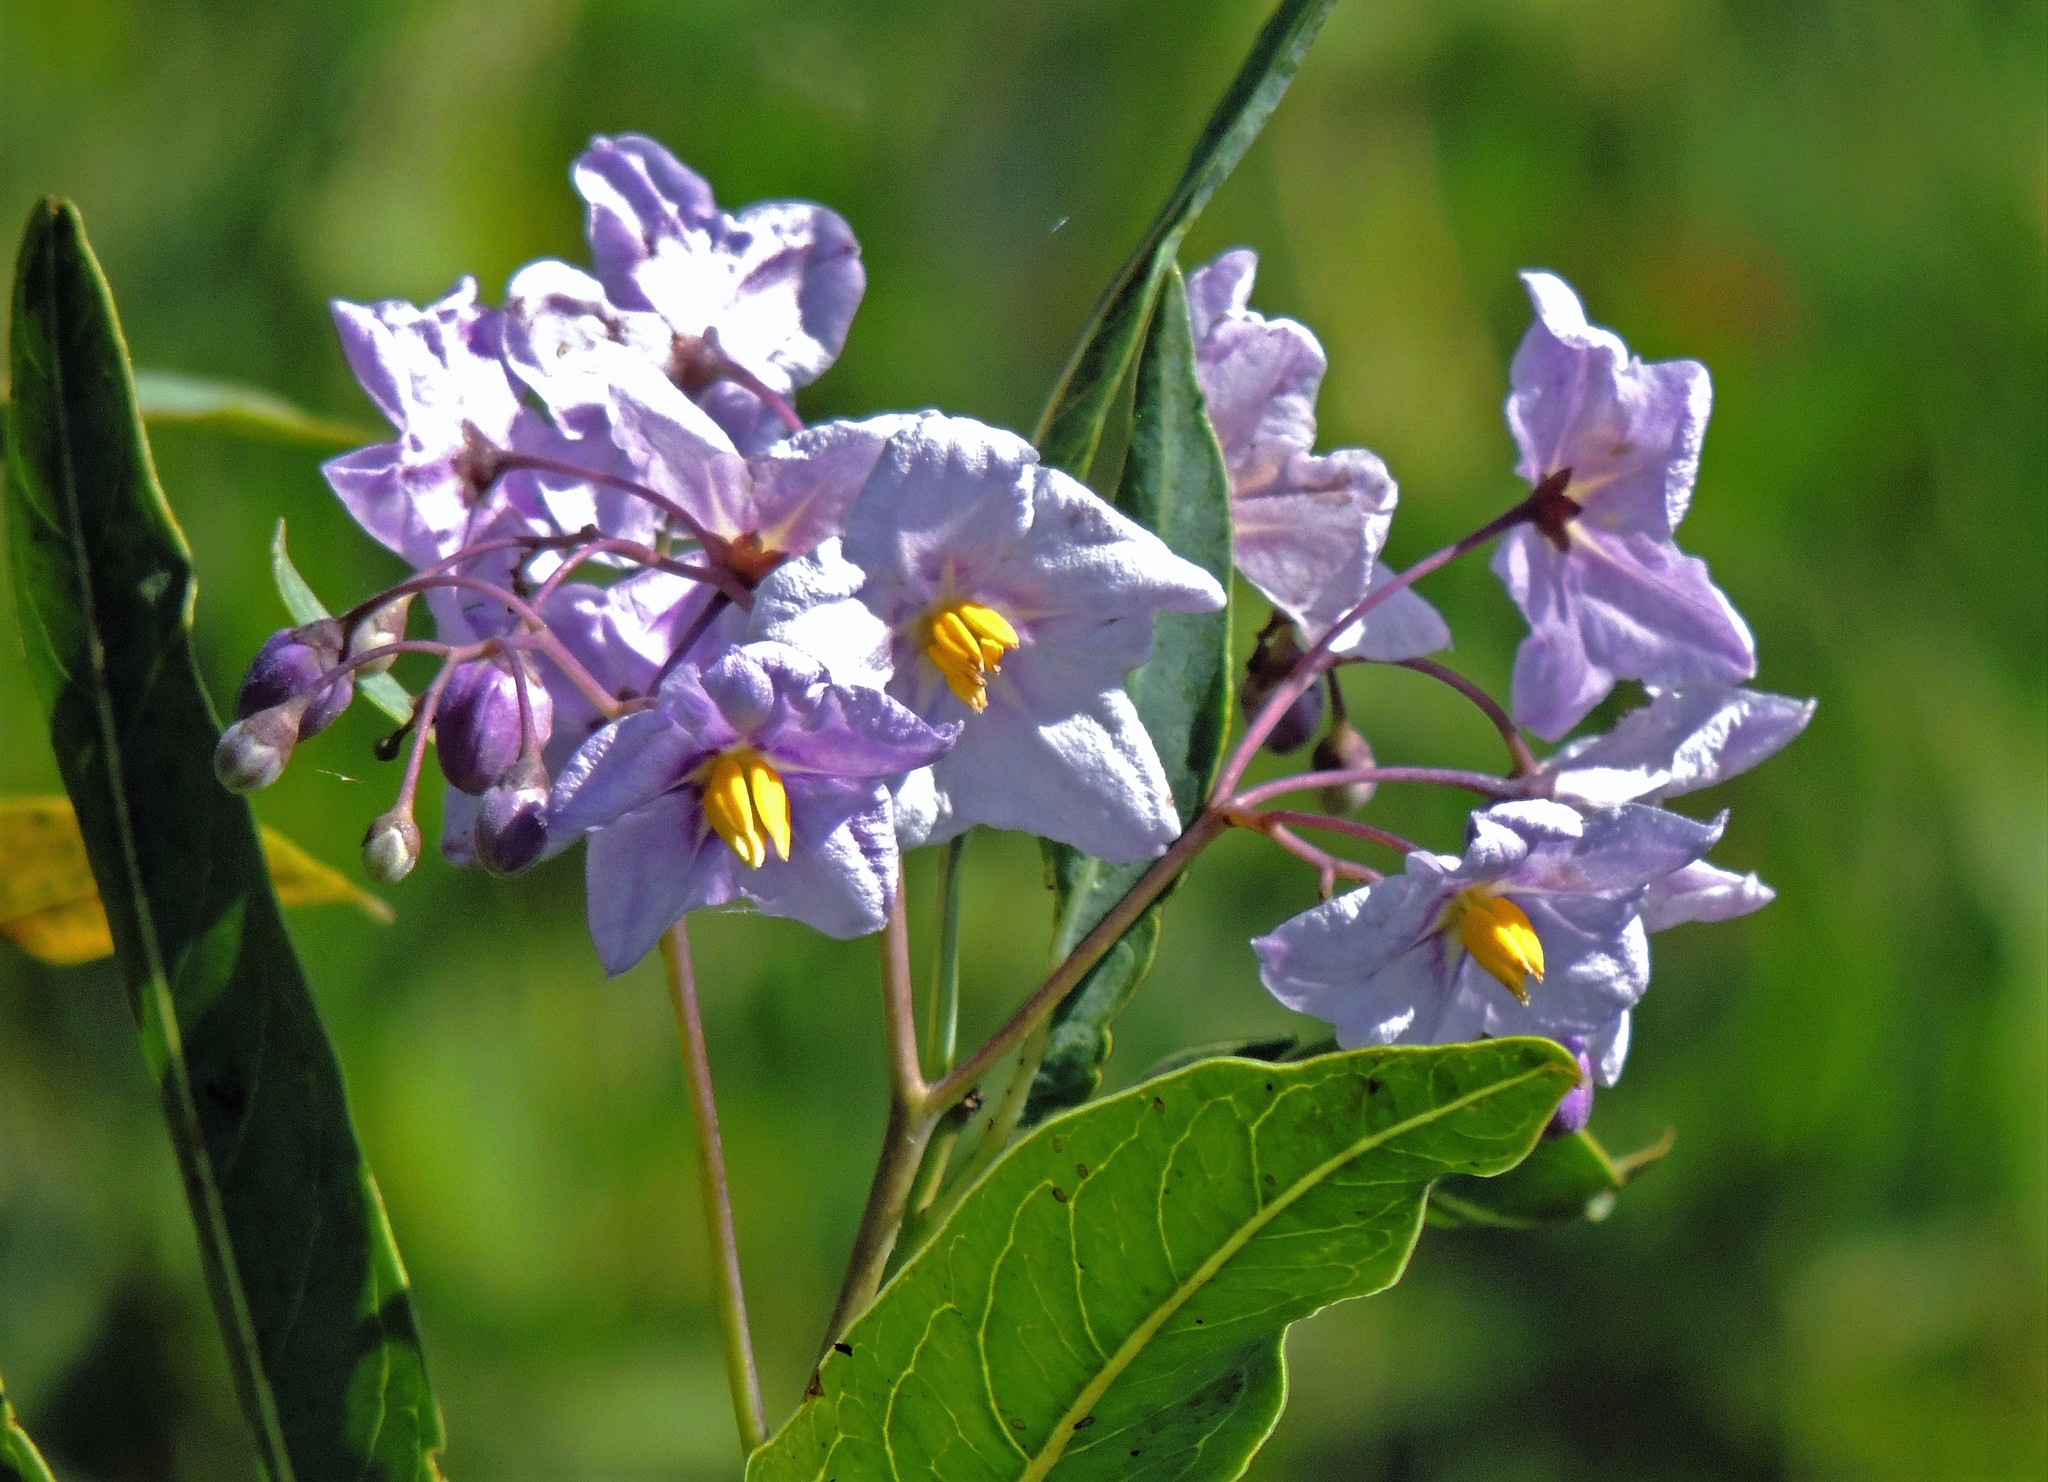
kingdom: Plantae
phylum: Tracheophyta
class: Magnoliopsida
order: Solanales
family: Solanaceae
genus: Solanum
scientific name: Solanum glaucophyllum
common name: Waxyleaf nightshade
